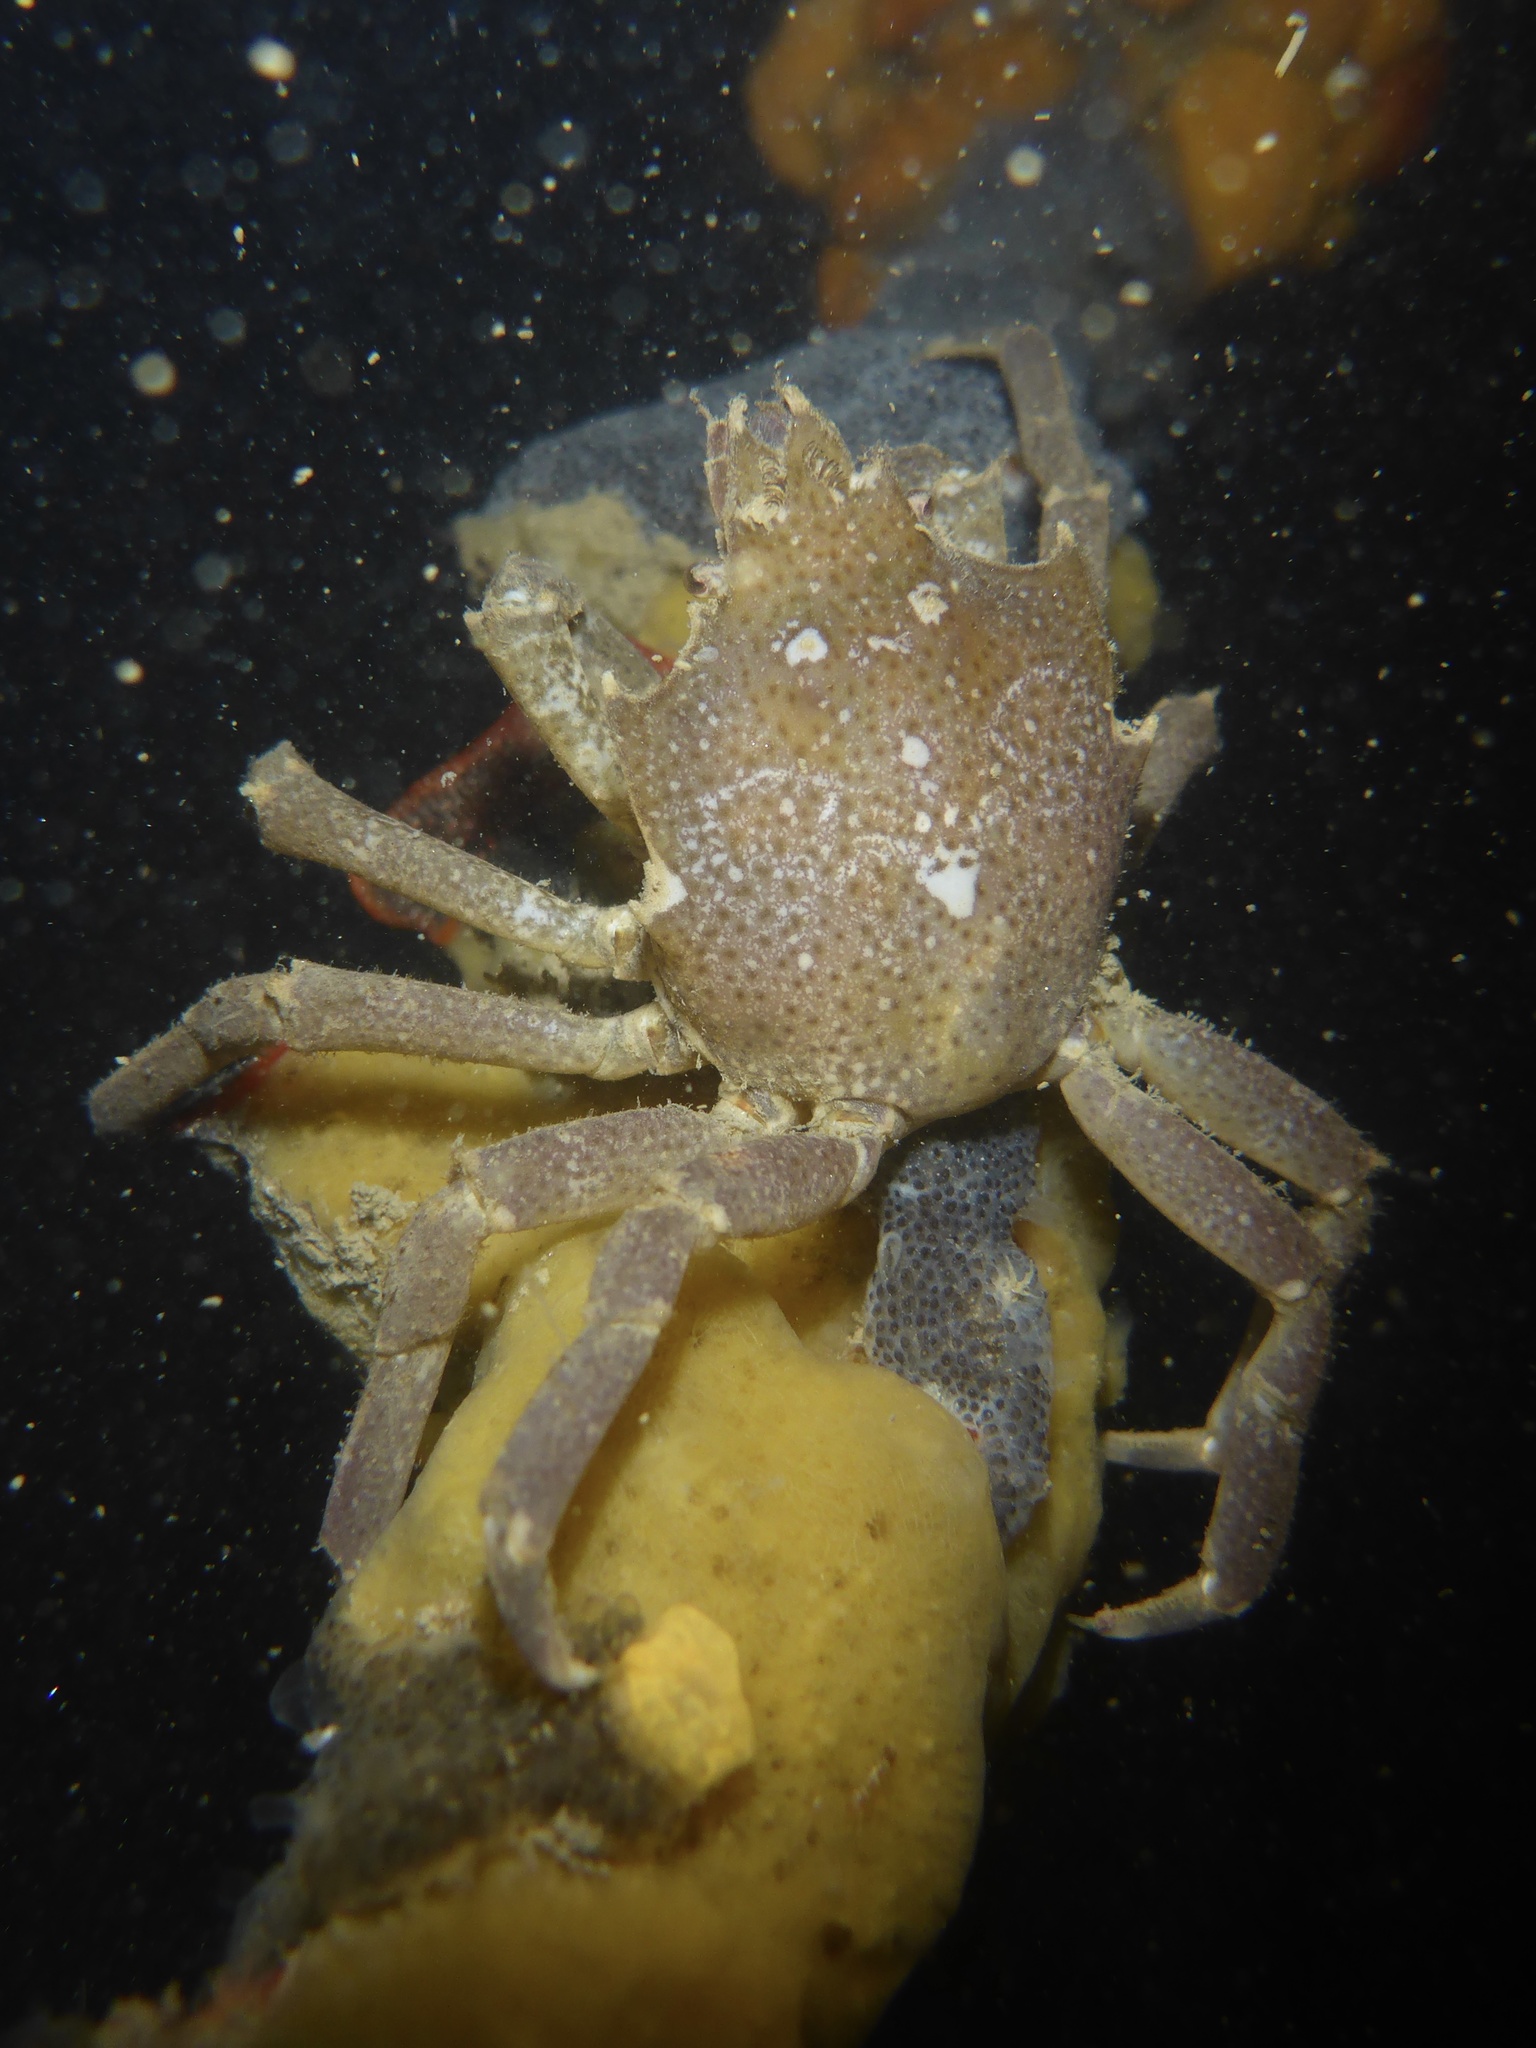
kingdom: Animalia
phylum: Arthropoda
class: Malacostraca
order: Decapoda
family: Epialtidae
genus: Pugettia
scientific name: Pugettia producta
